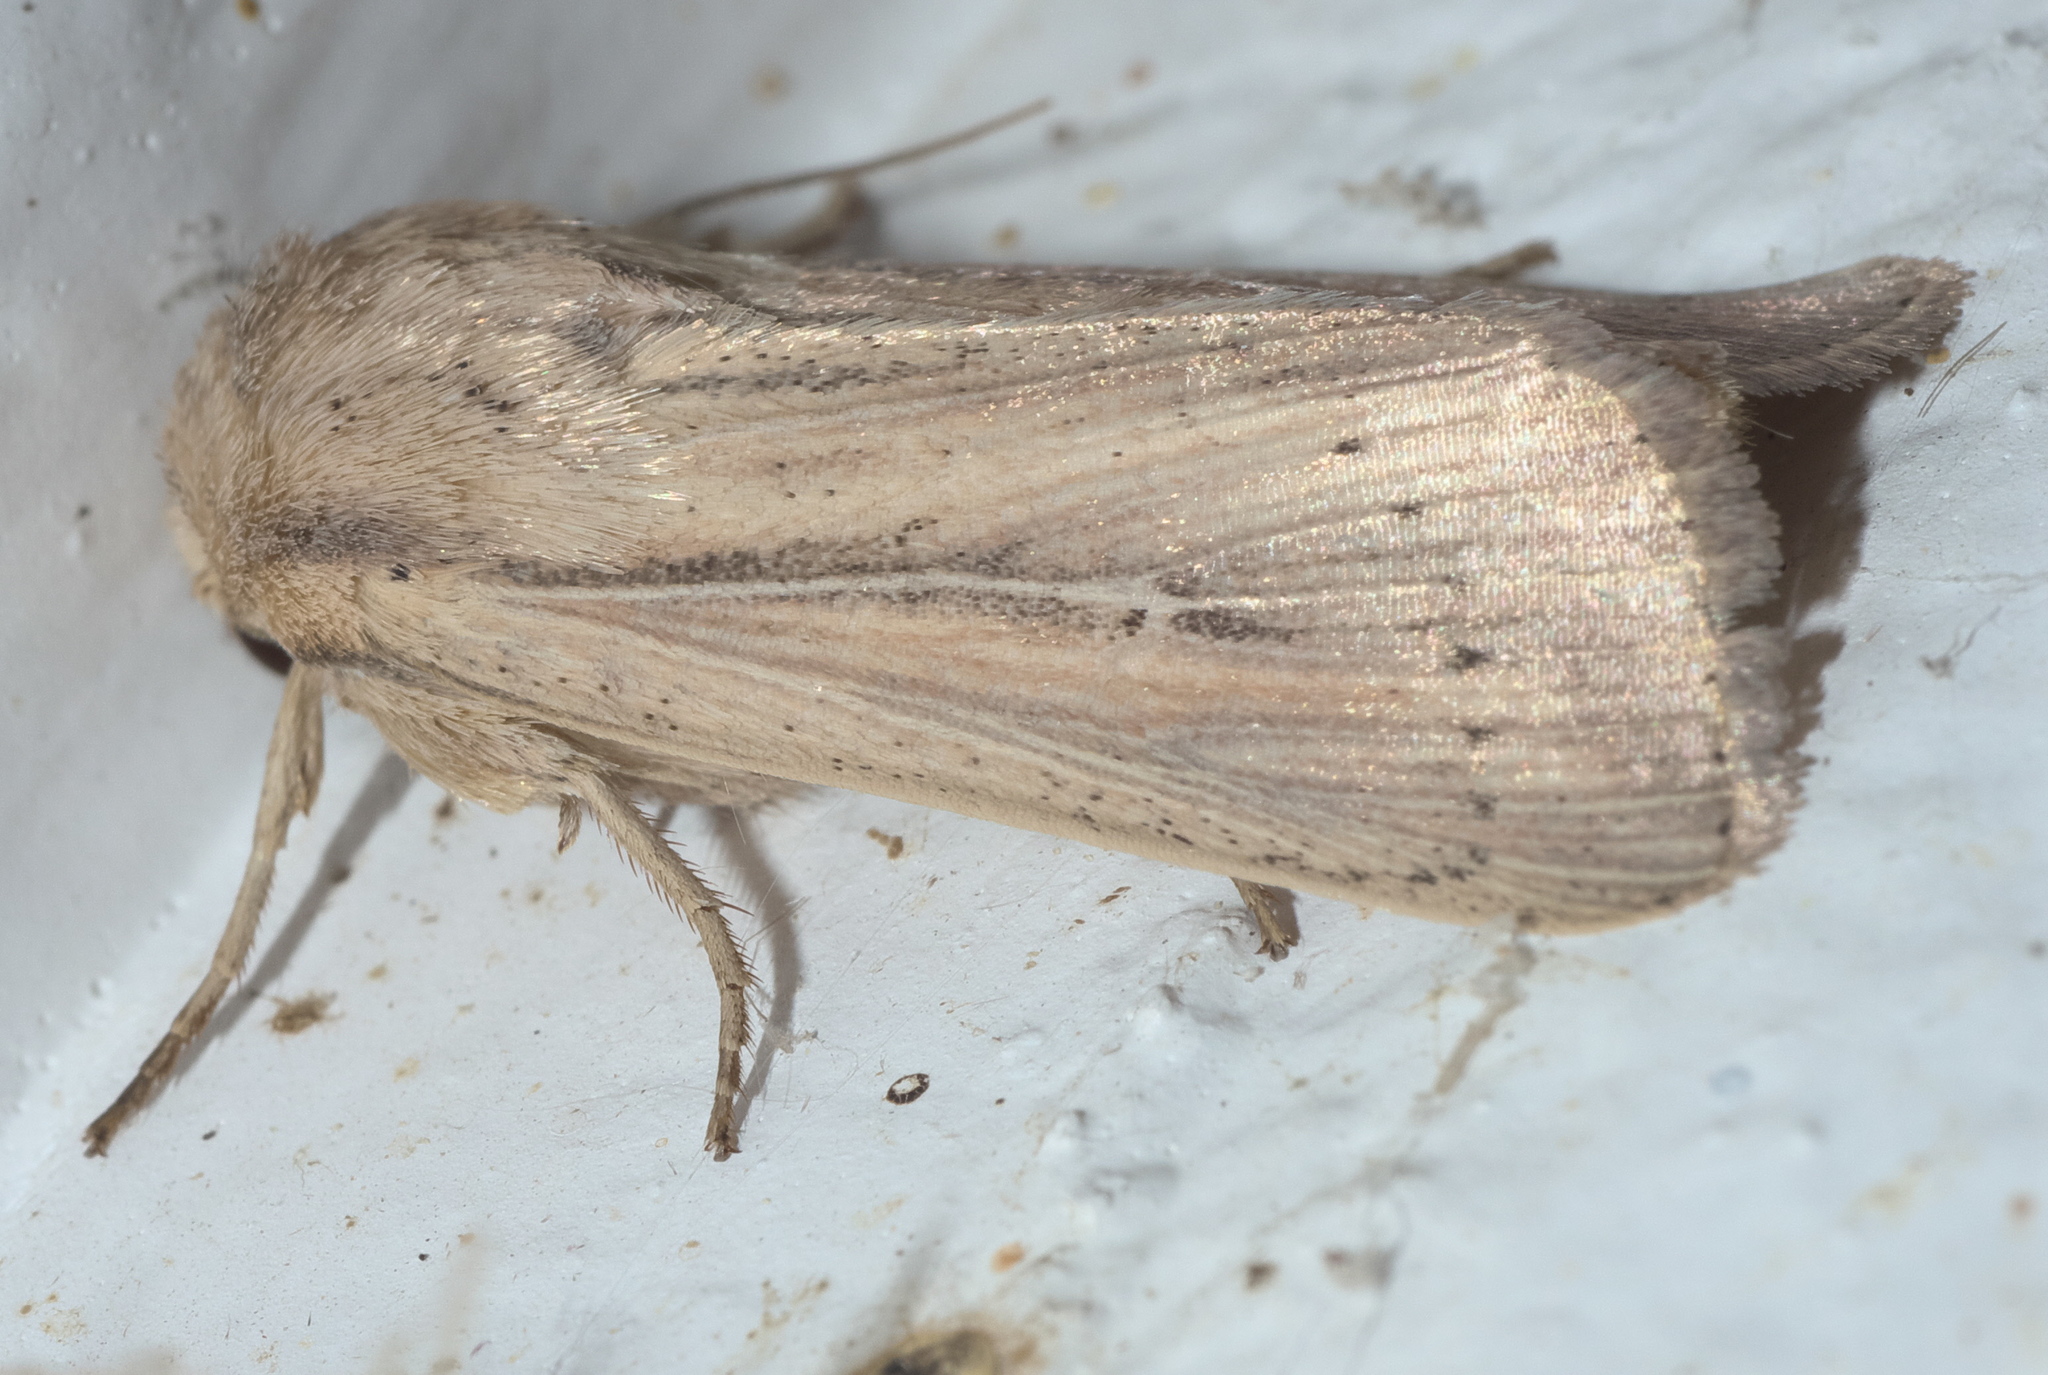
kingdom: Animalia
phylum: Arthropoda
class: Insecta
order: Lepidoptera
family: Noctuidae
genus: Leucania
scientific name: Leucania linda
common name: Linda's wainscot
